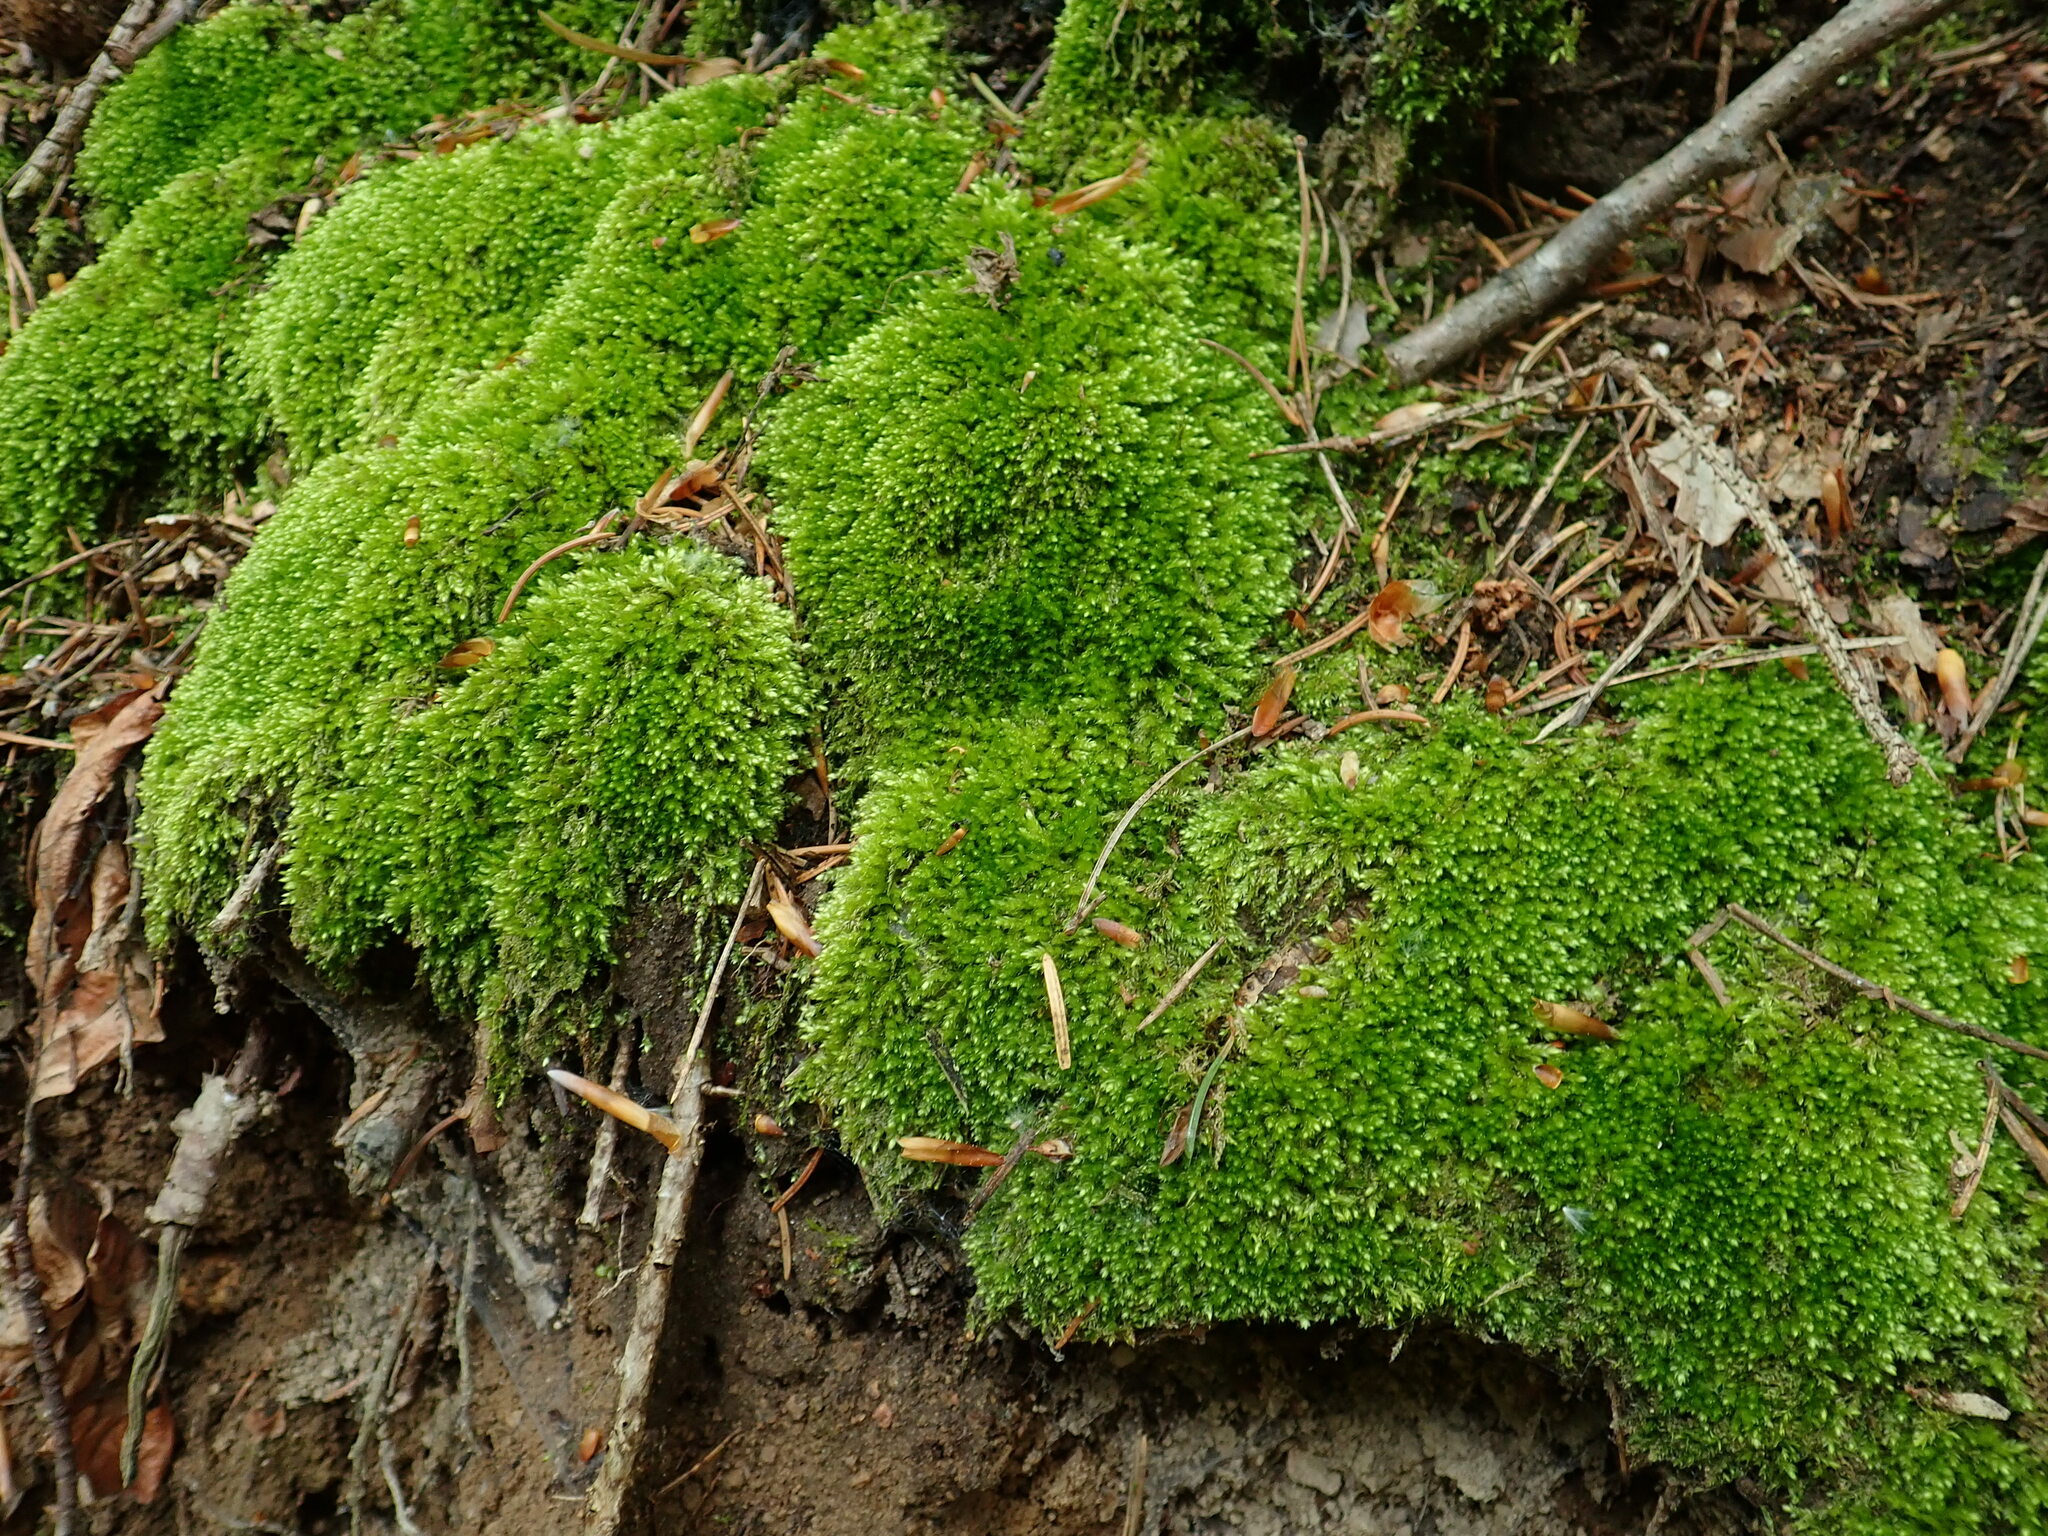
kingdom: Plantae
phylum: Bryophyta
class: Bryopsida
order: Hypnales
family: Plagiotheciaceae
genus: Plagiothecium
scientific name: Plagiothecium cavifolium
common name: Round silk moss
